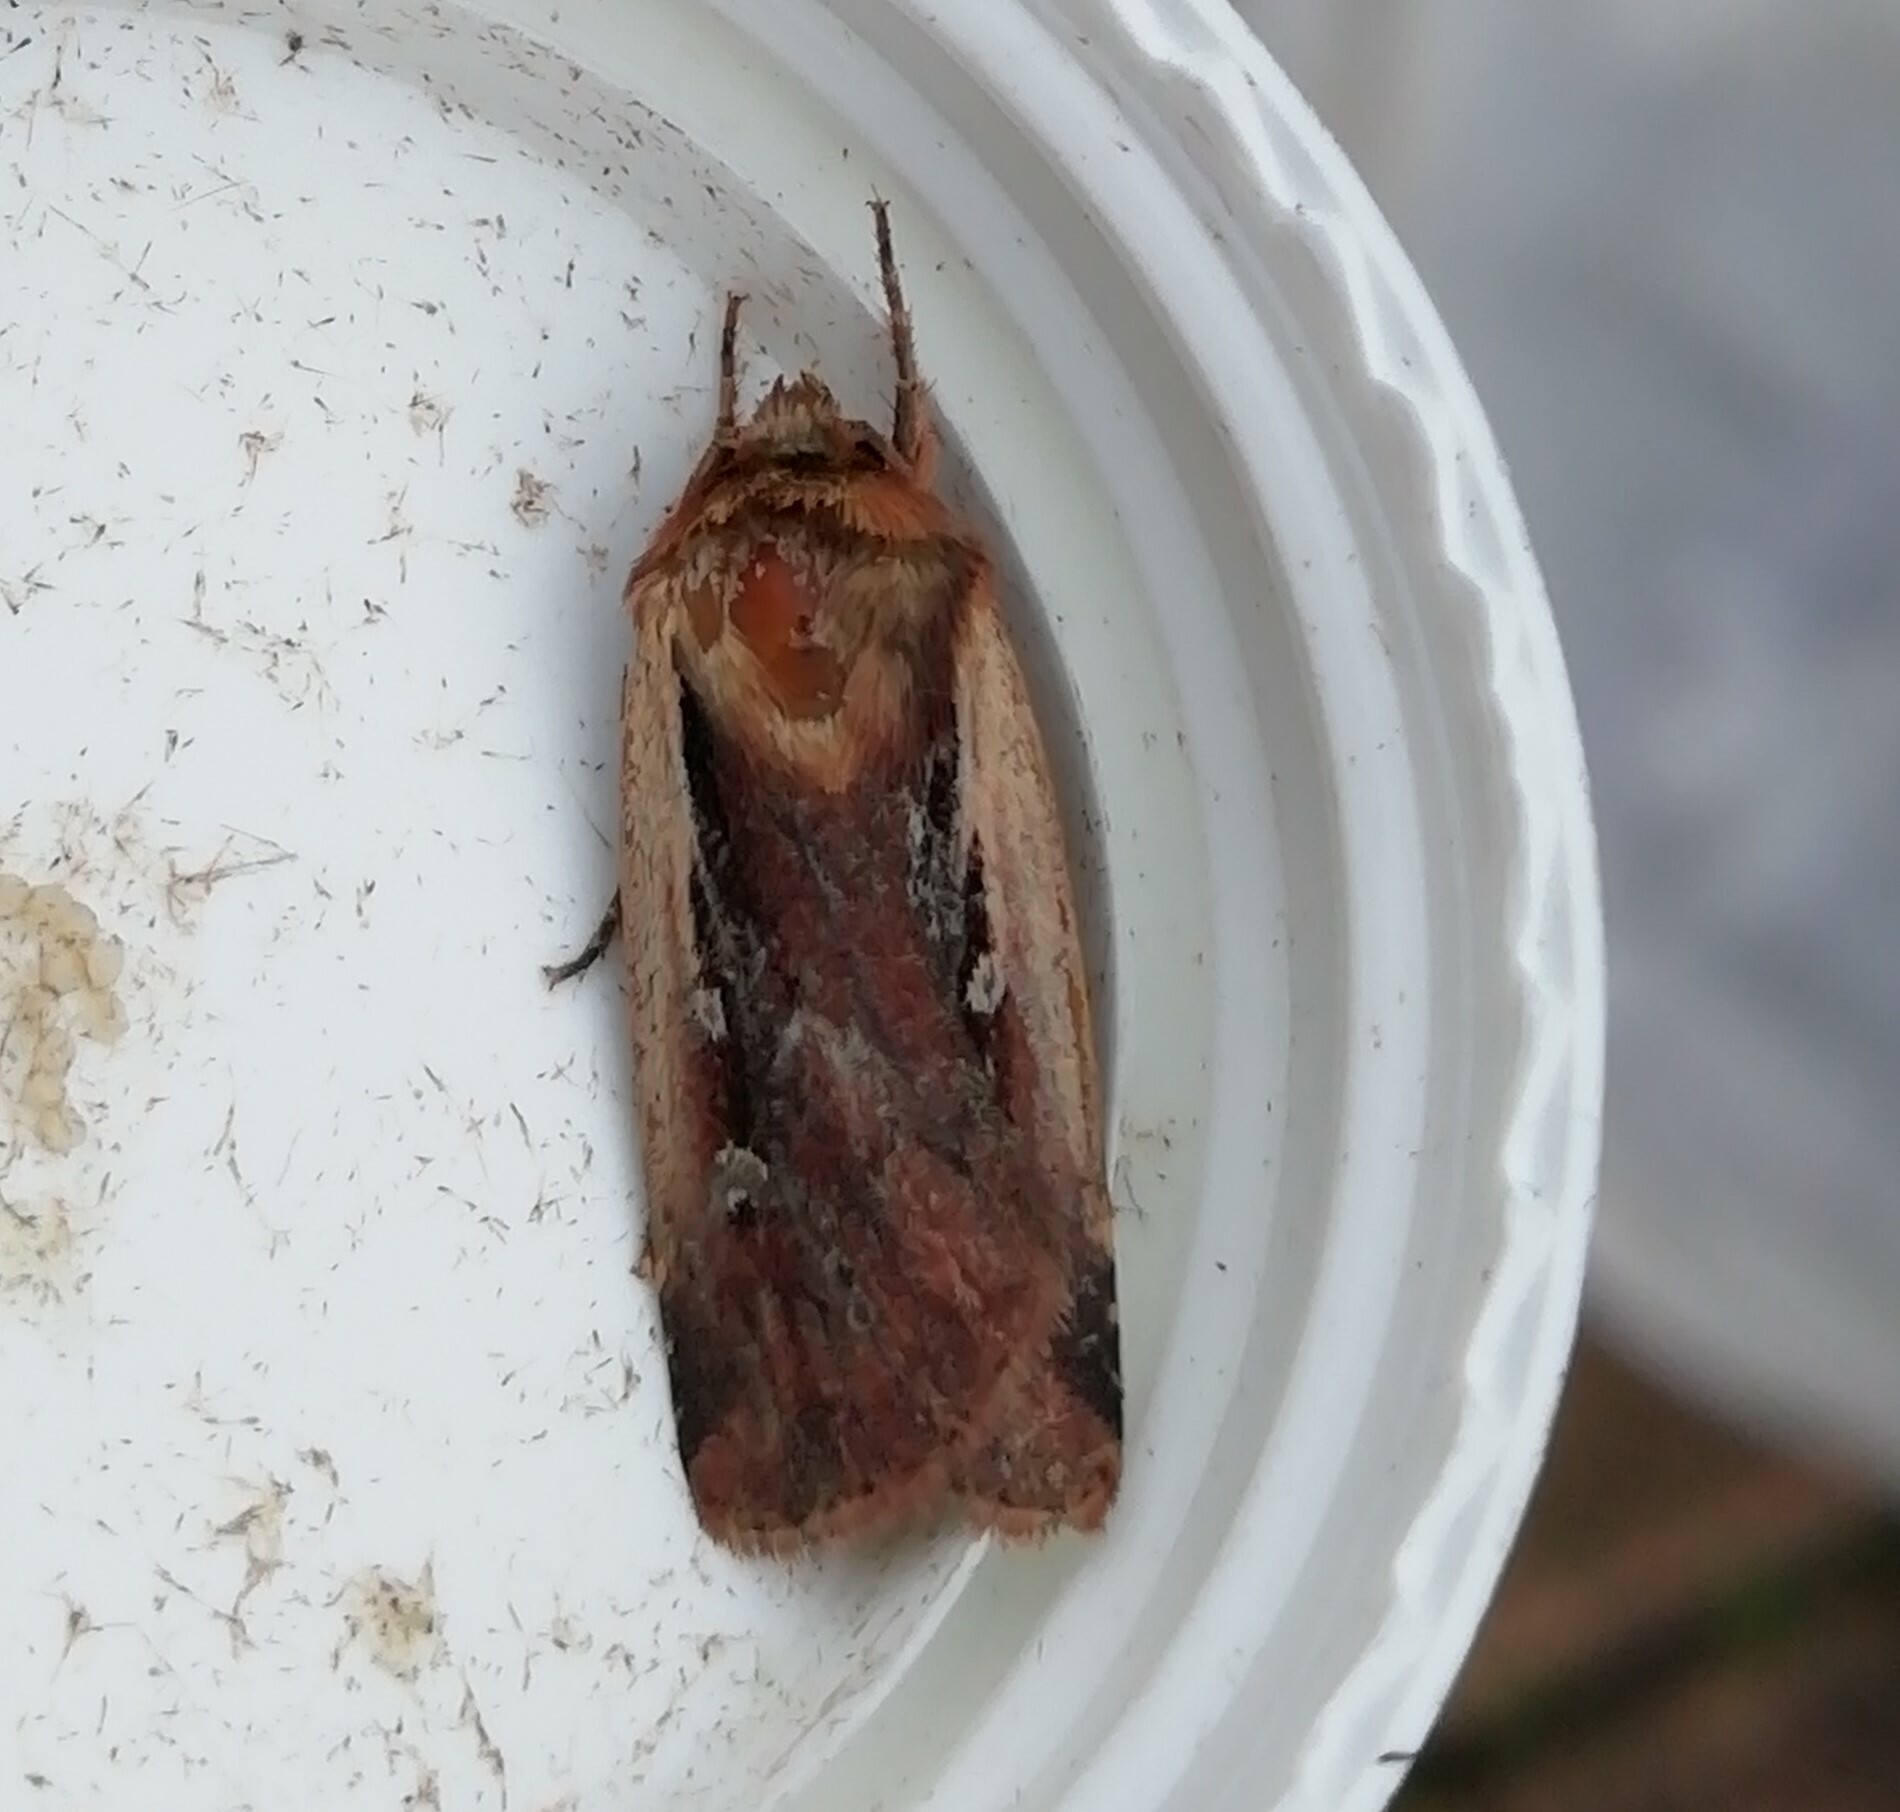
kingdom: Animalia
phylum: Arthropoda
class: Insecta
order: Lepidoptera
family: Noctuidae
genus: Ochropleura
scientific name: Ochropleura plecta
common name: Flame shoulder
